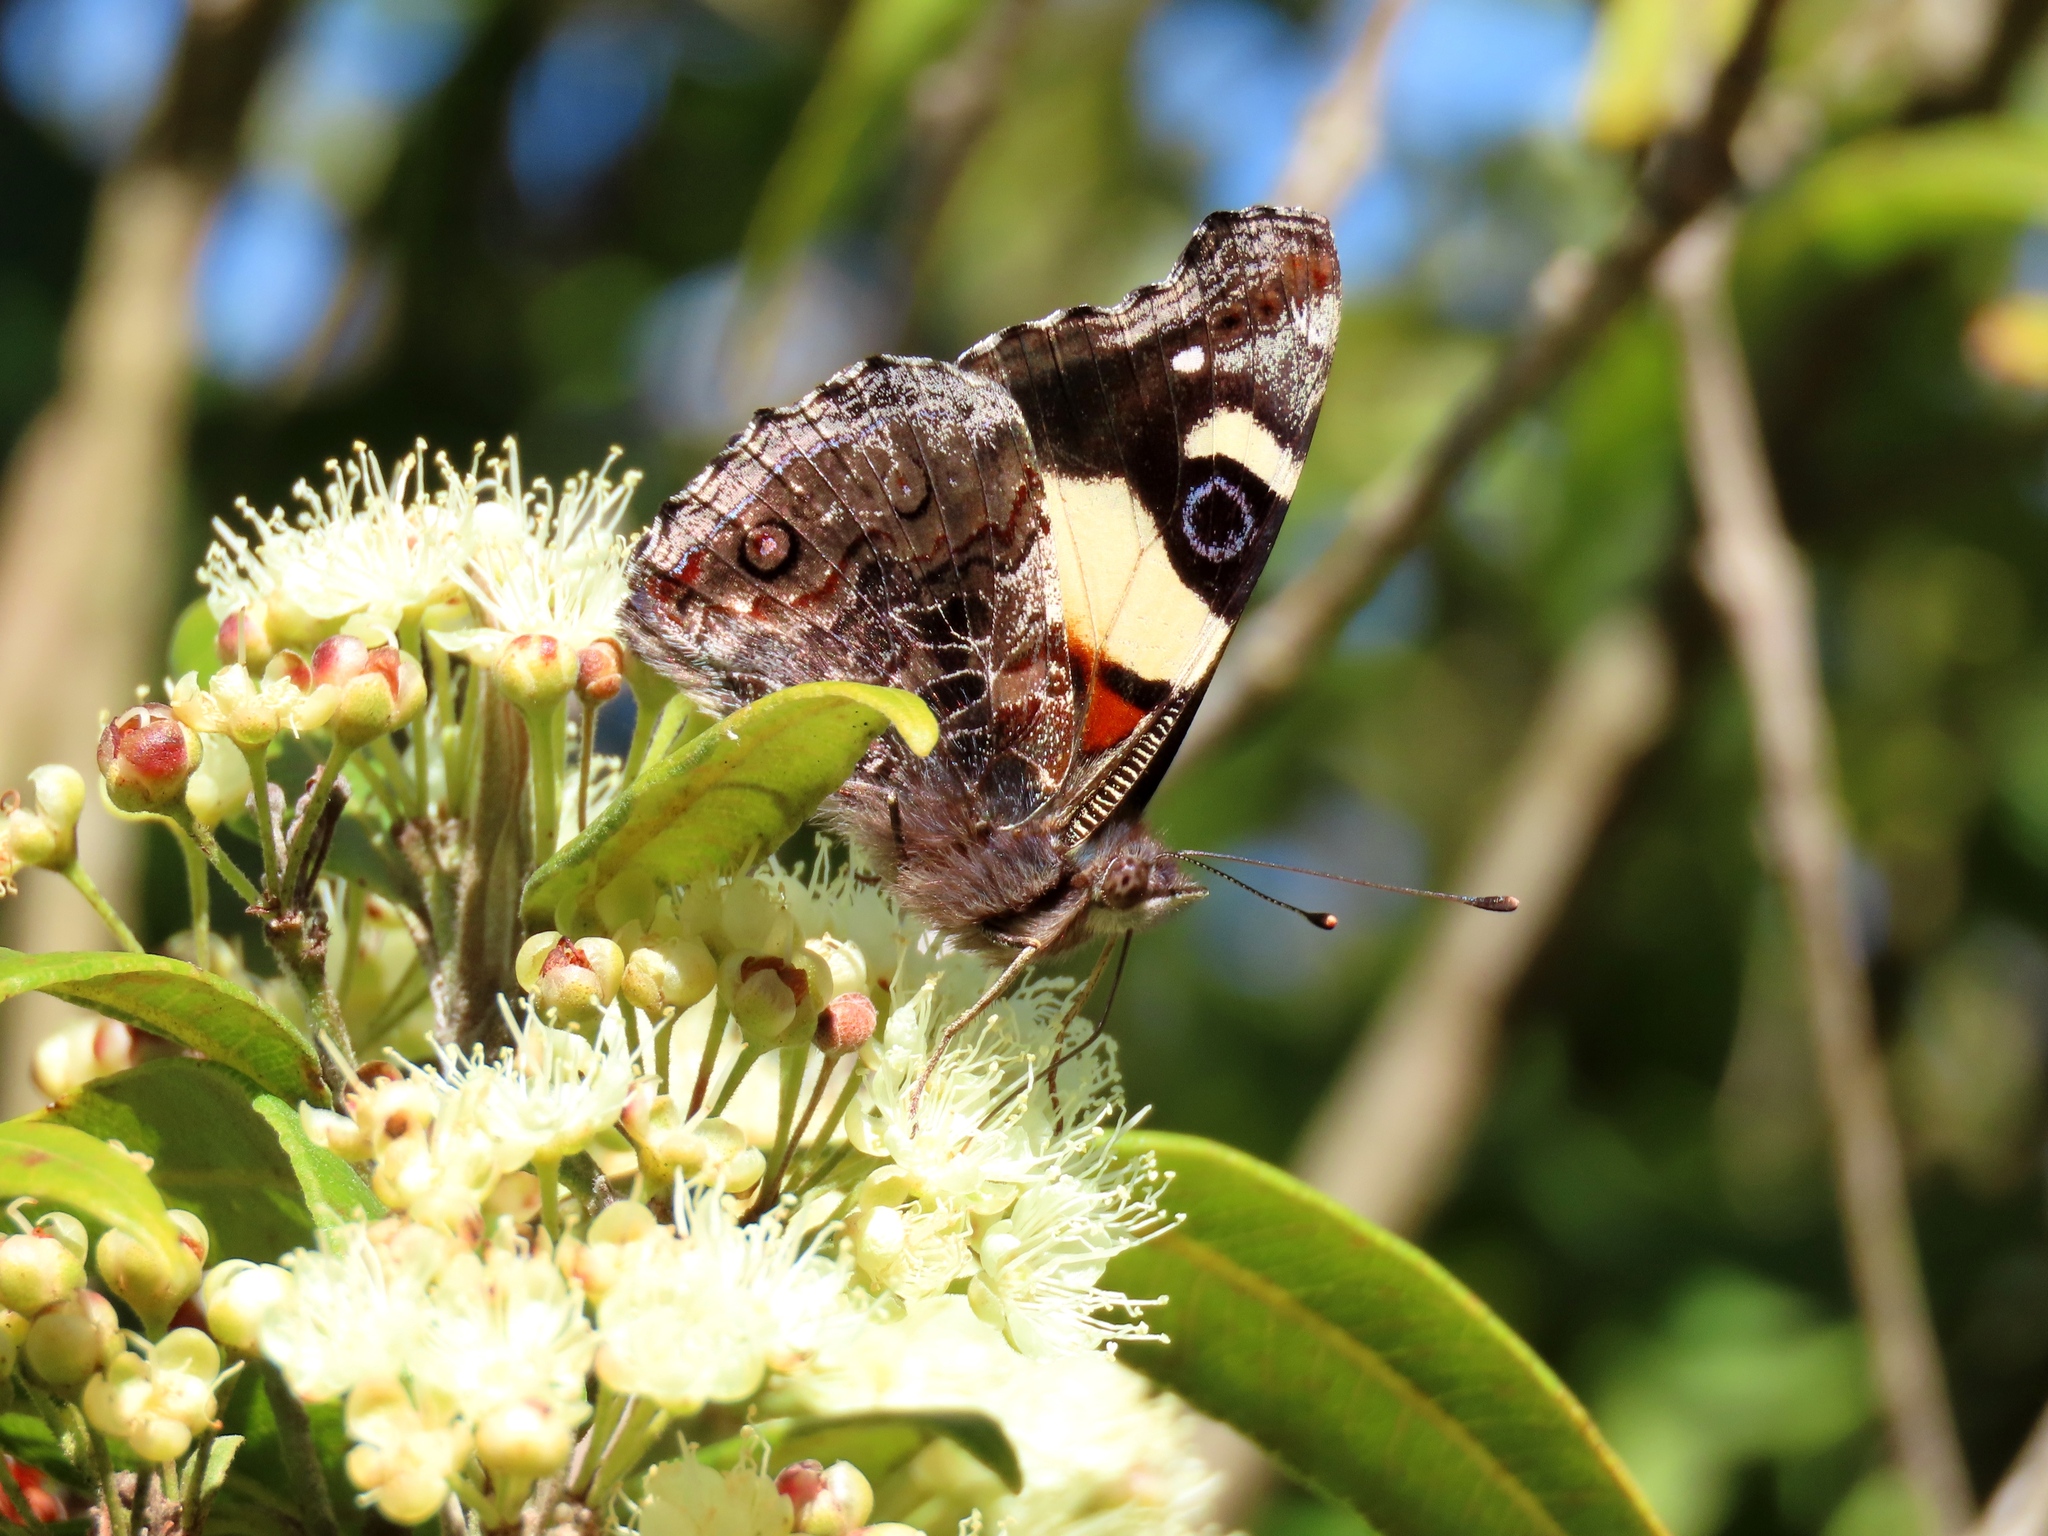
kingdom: Animalia
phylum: Arthropoda
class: Insecta
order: Lepidoptera
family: Nymphalidae
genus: Vanessa
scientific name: Vanessa itea
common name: Yellow admiral
